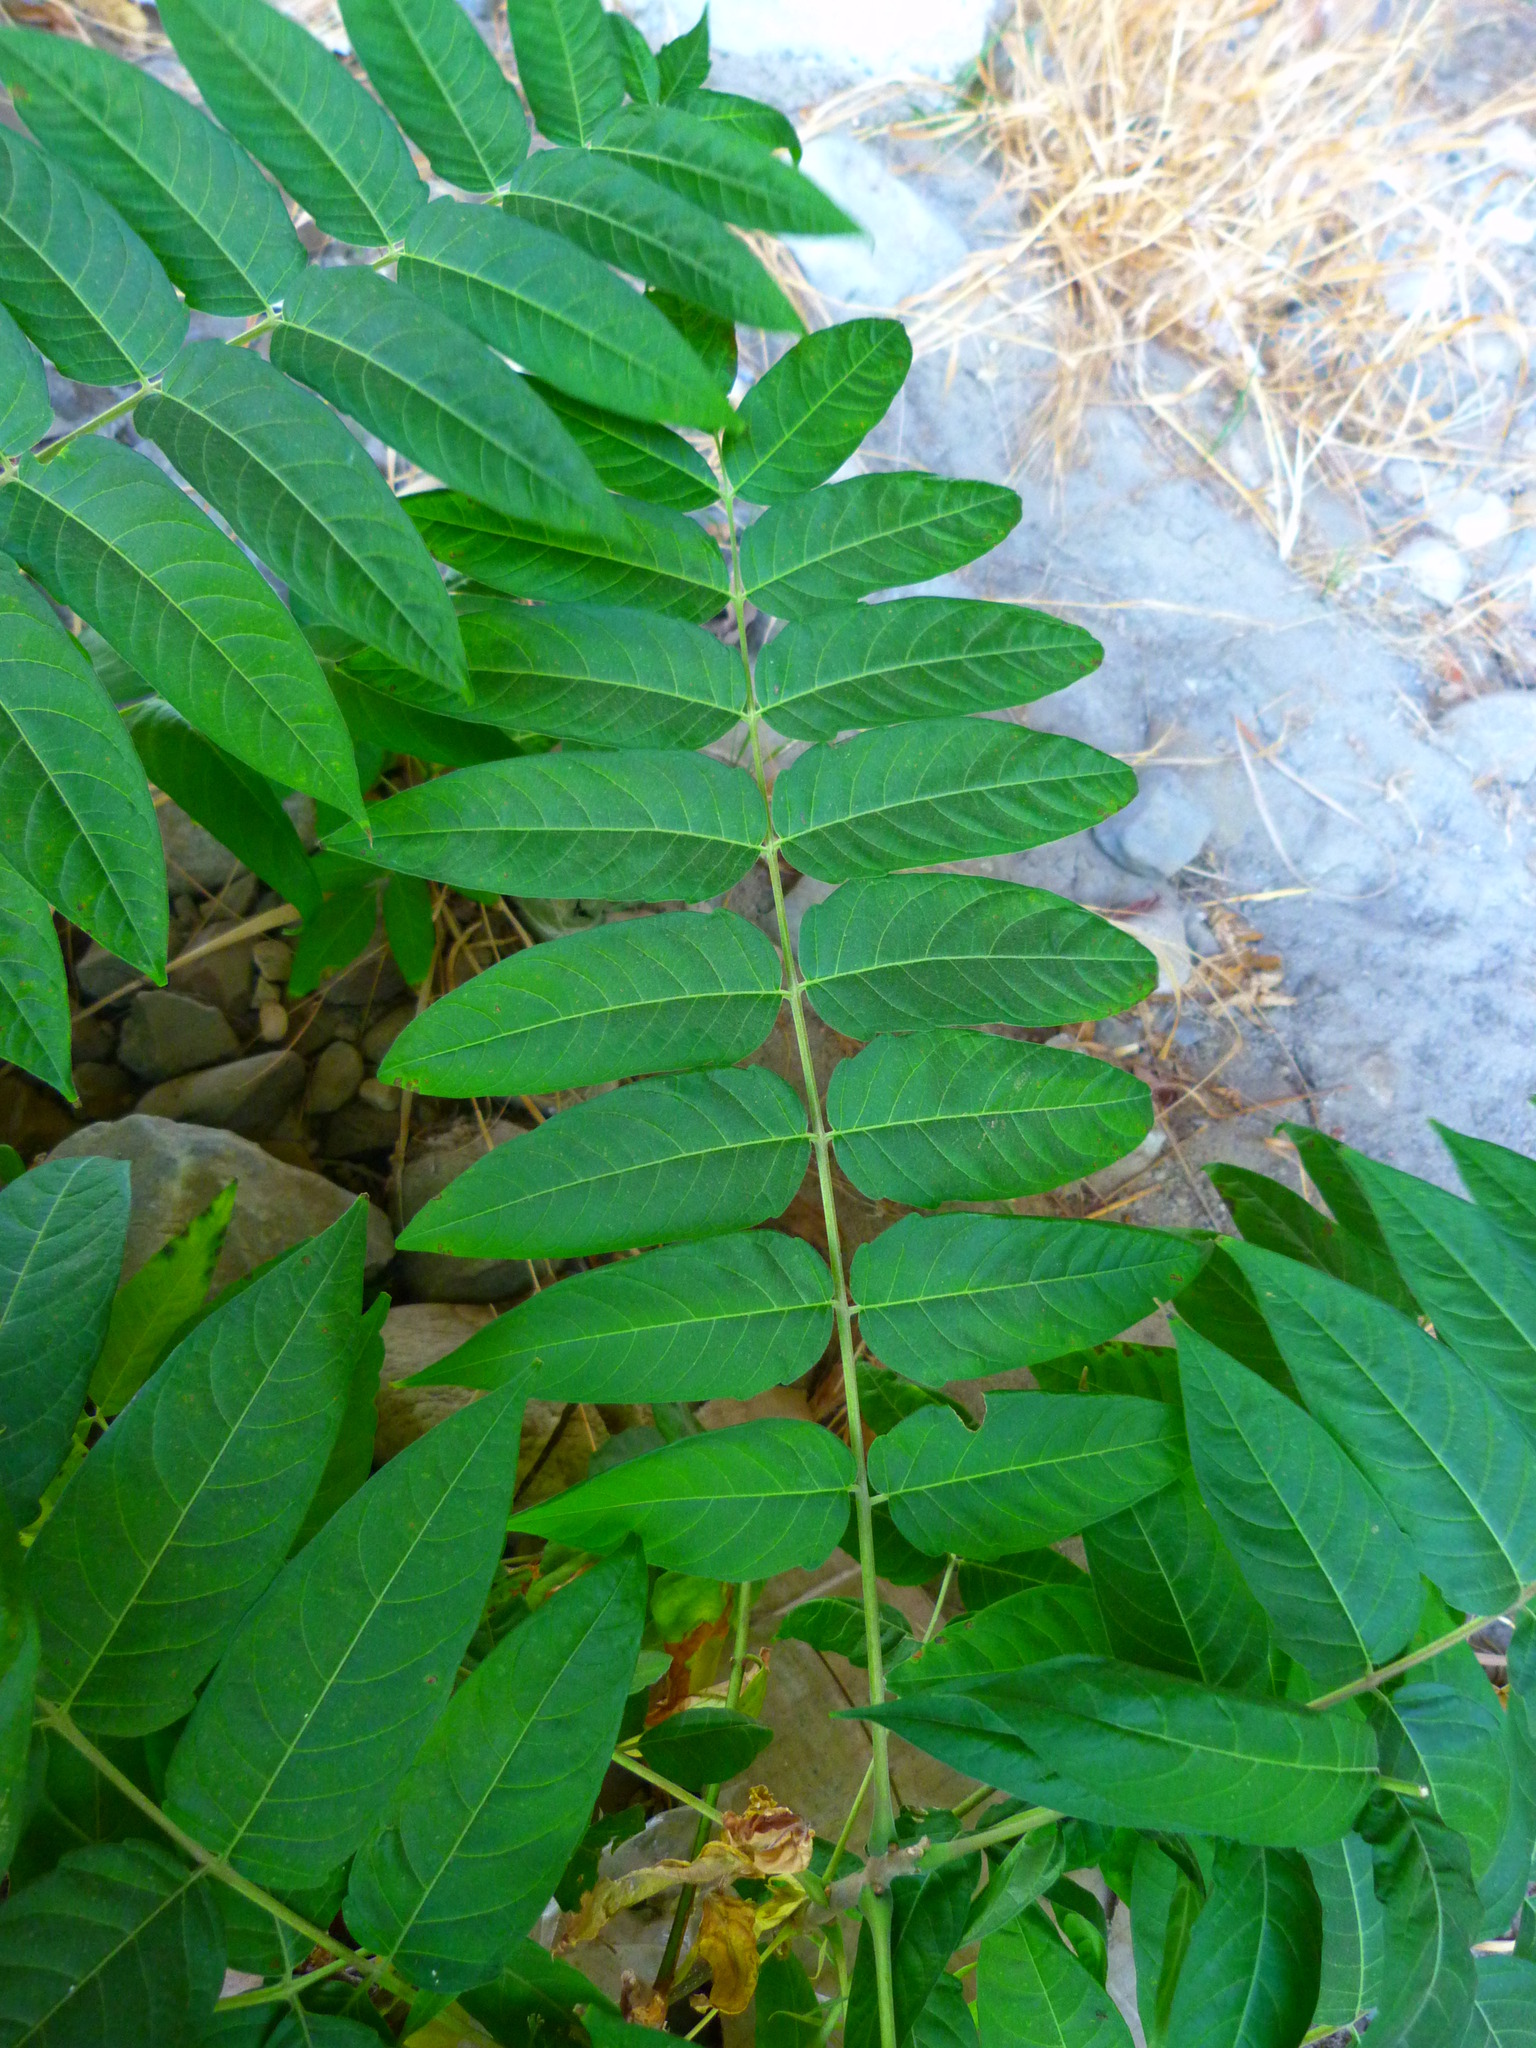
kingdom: Plantae
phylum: Tracheophyta
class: Magnoliopsida
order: Sapindales
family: Simaroubaceae
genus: Ailanthus
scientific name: Ailanthus altissima
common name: Tree-of-heaven
